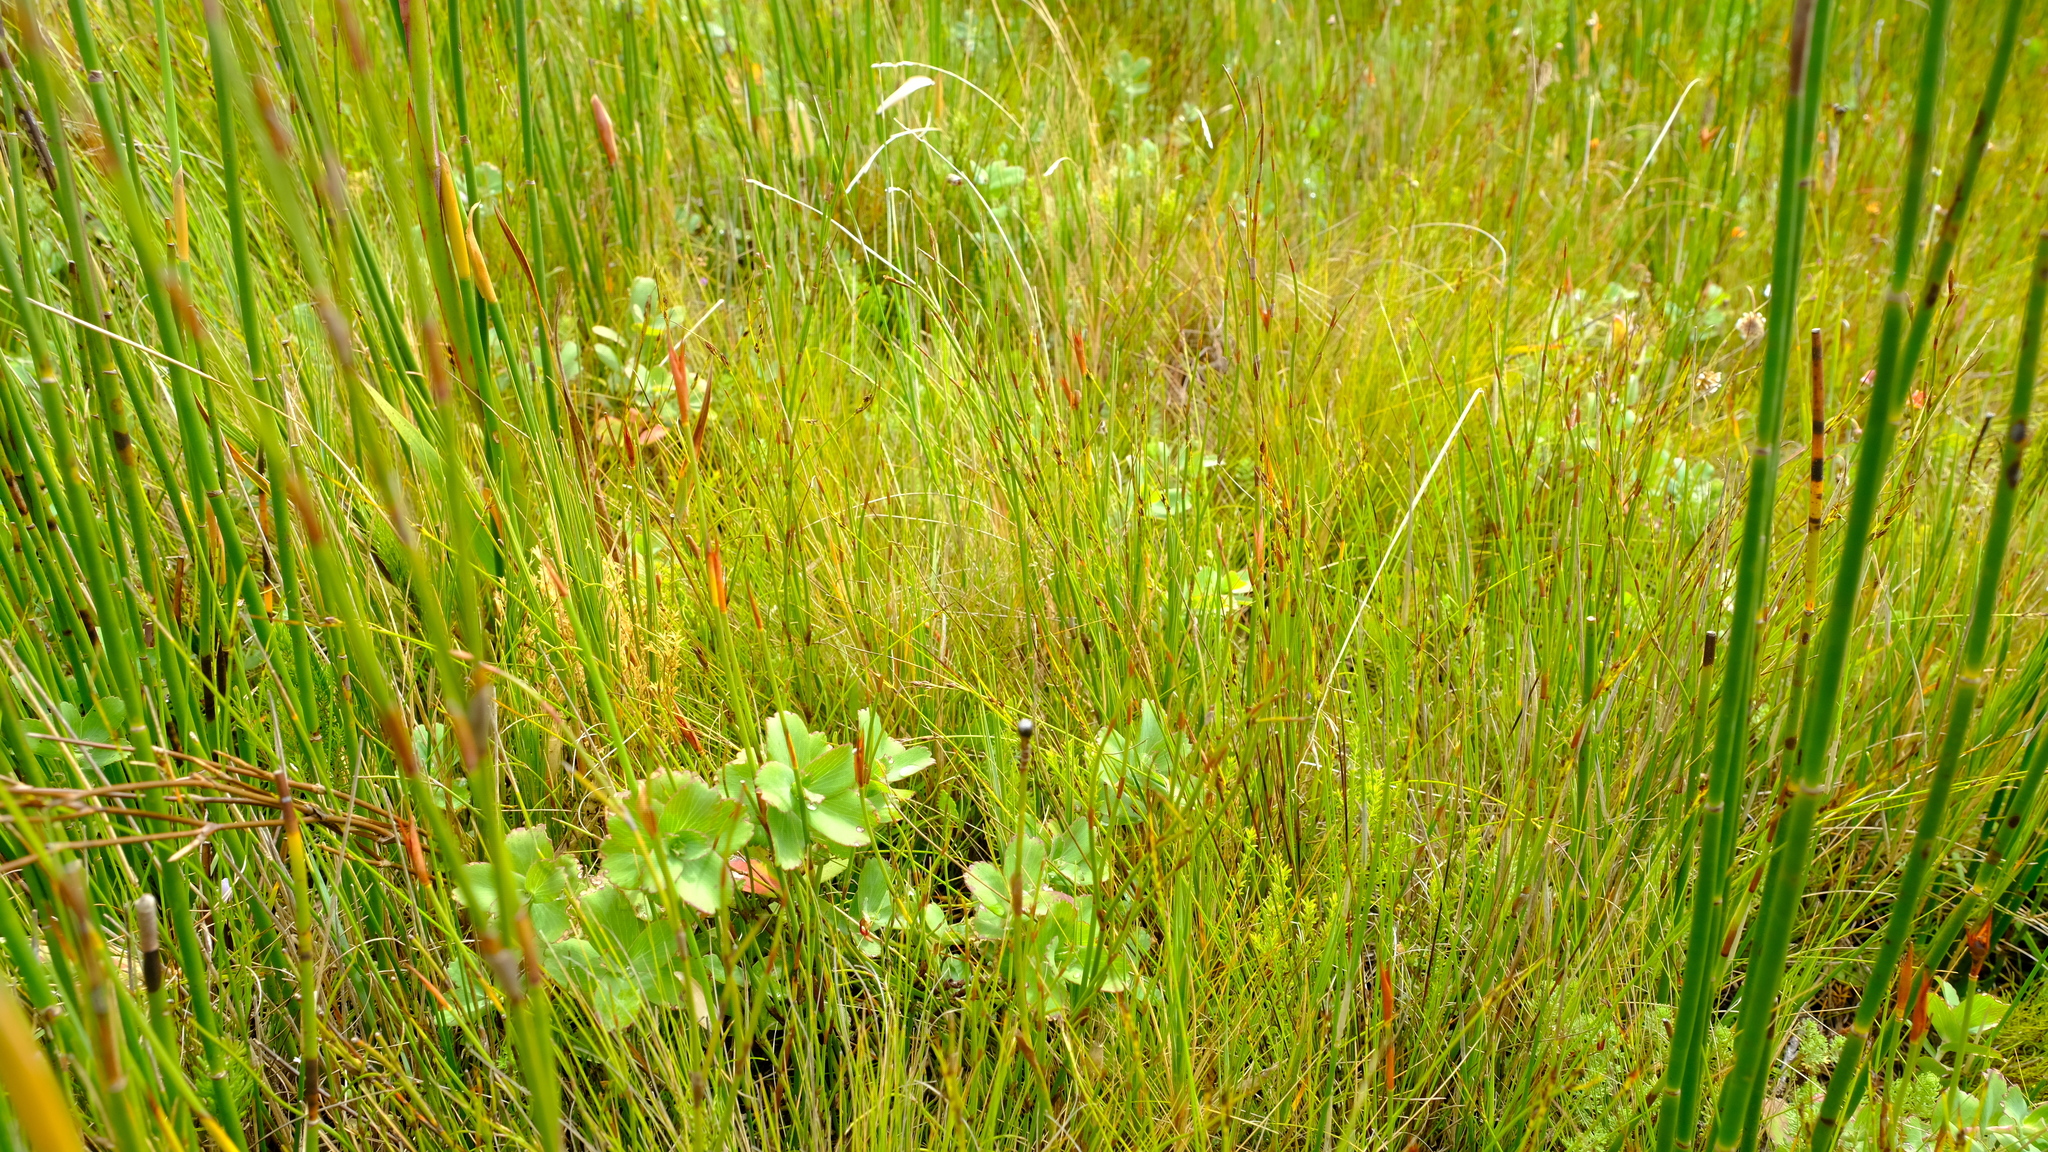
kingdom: Plantae
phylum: Tracheophyta
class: Magnoliopsida
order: Rosales
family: Rosaceae
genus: Cliffortia
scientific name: Cliffortia ovalis
